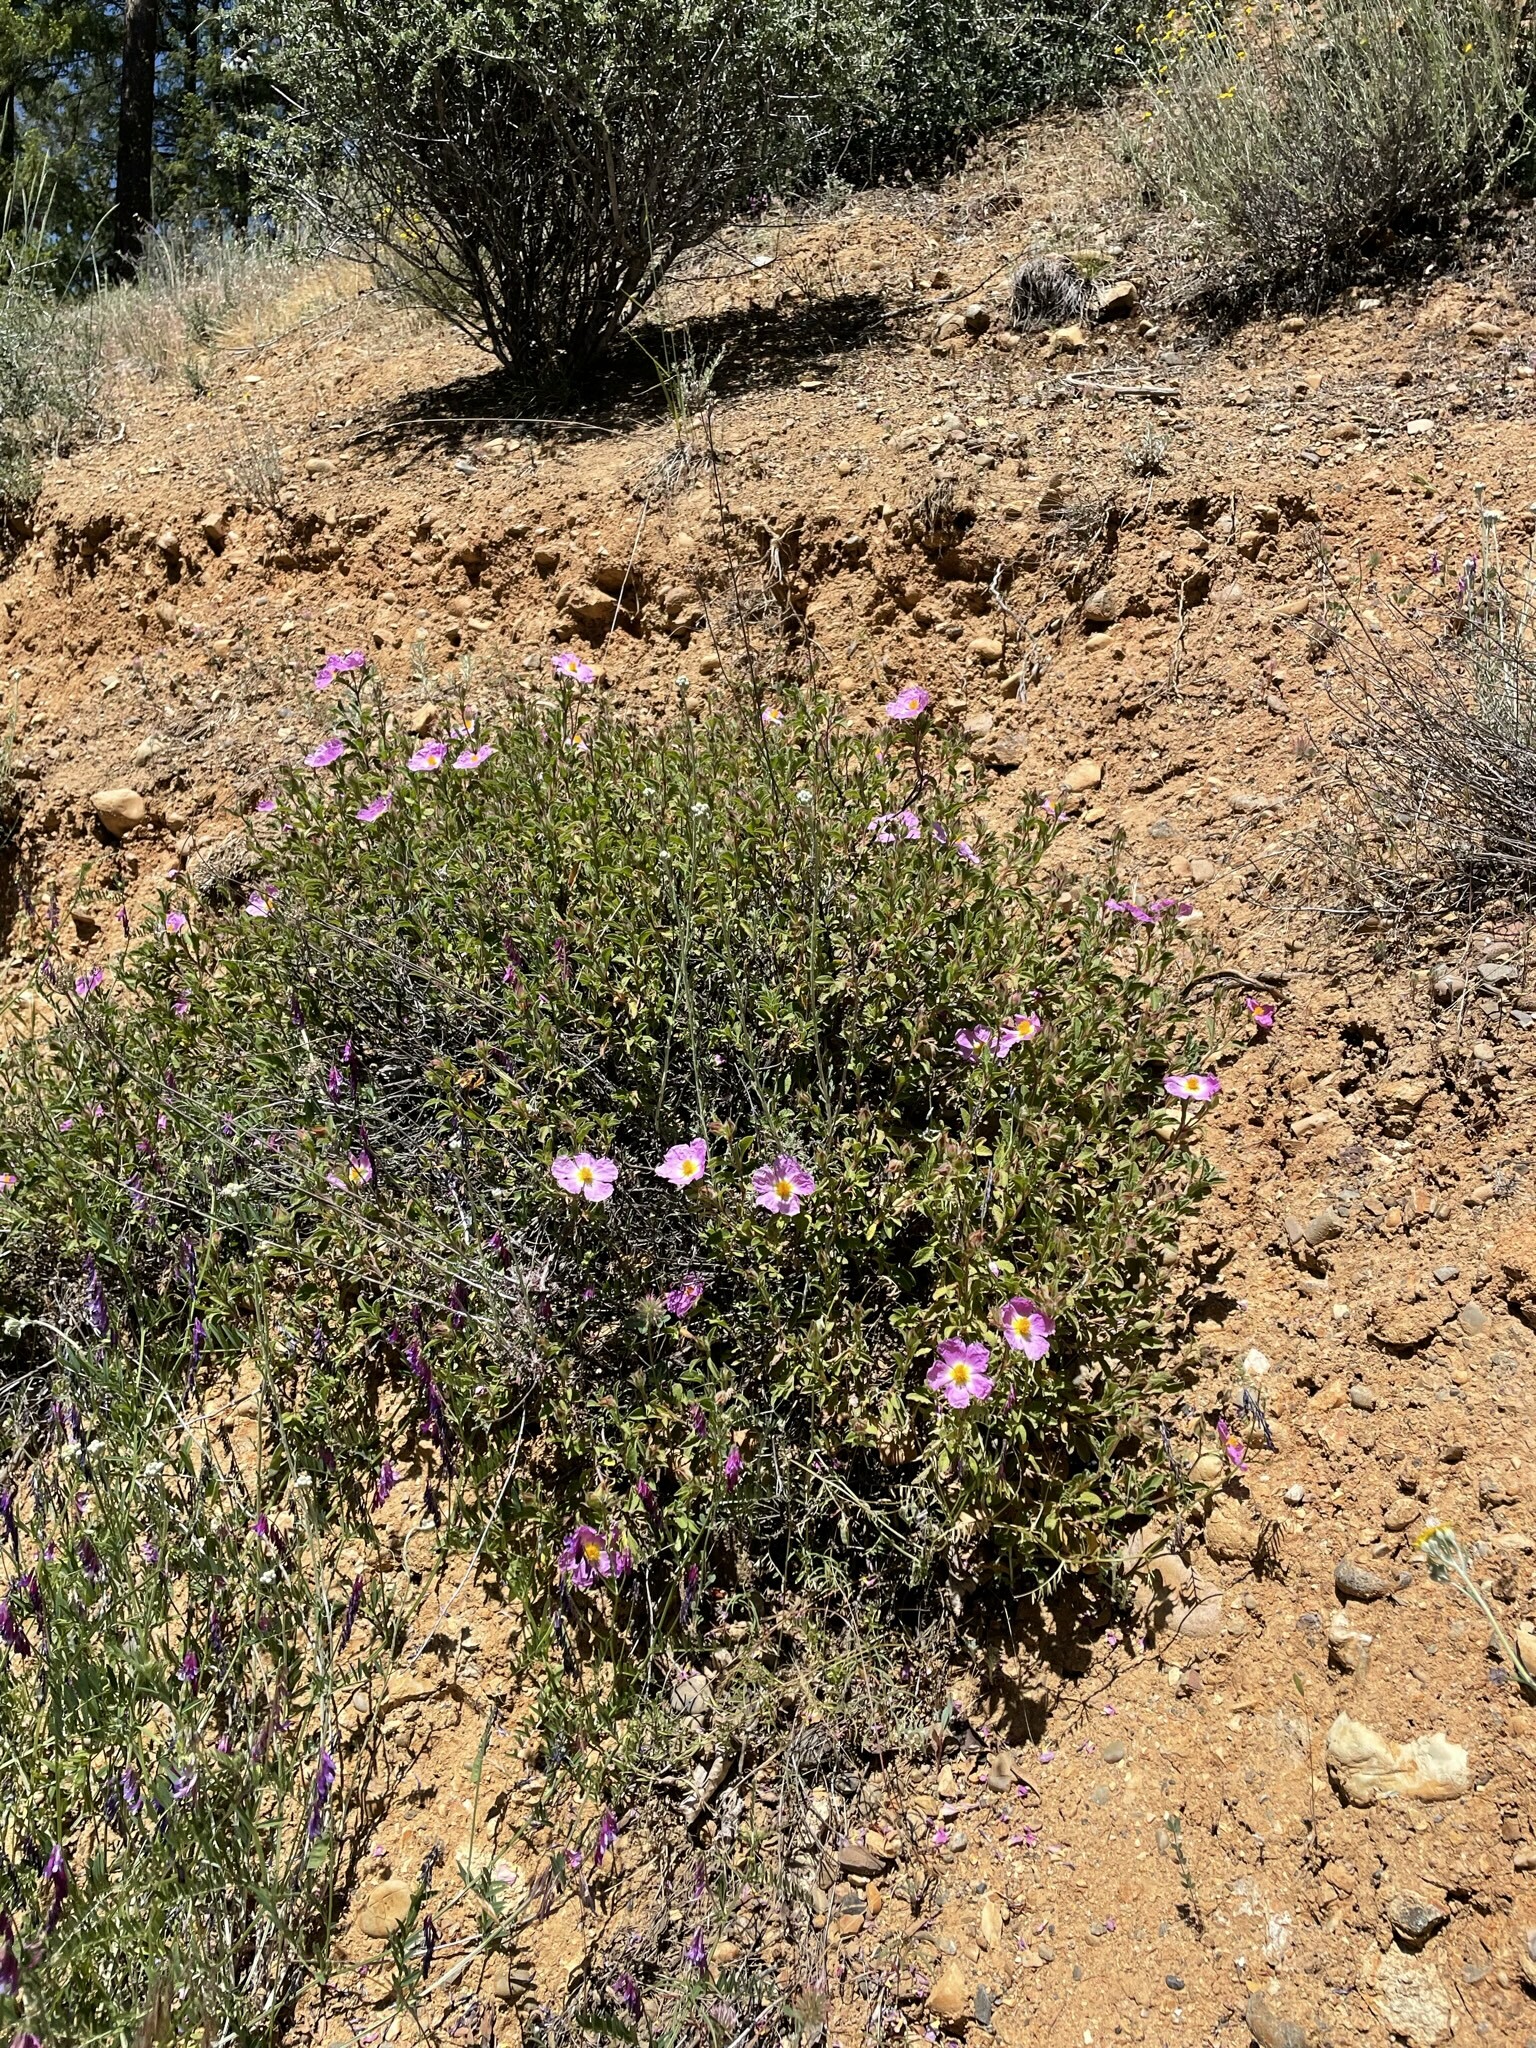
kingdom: Plantae
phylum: Tracheophyta
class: Magnoliopsida
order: Malvales
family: Cistaceae
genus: Cistus
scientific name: Cistus creticus
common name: Cretan rockrose
